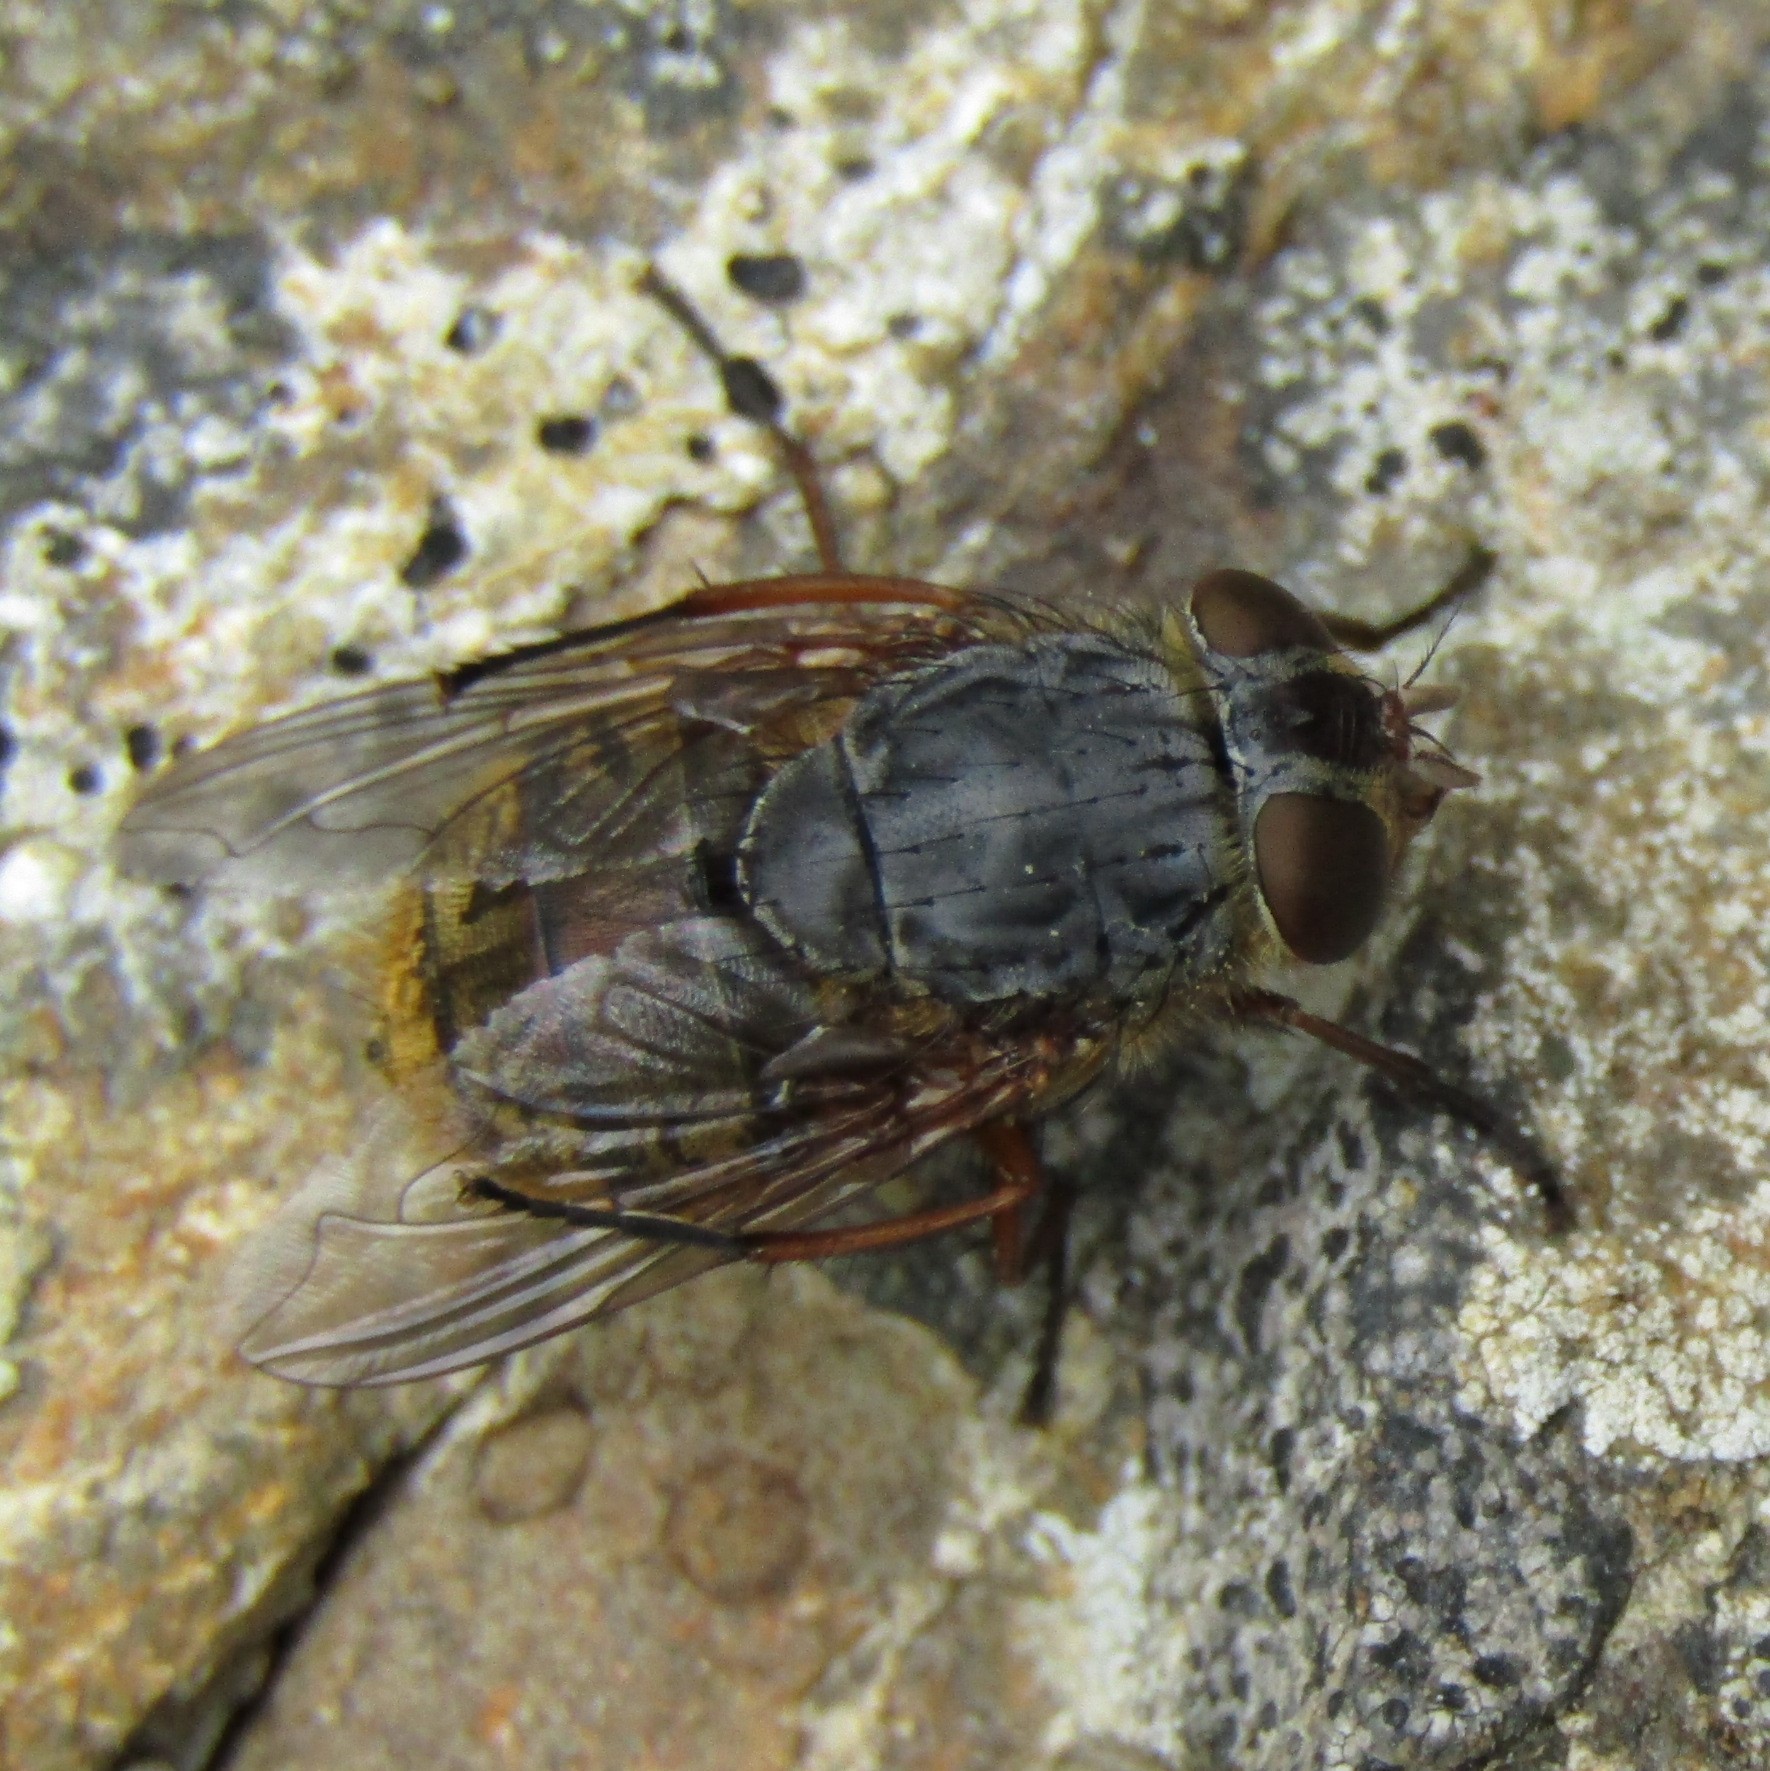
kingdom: Animalia
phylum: Arthropoda
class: Insecta
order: Diptera
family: Calliphoridae
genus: Calliphora
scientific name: Calliphora stygia
